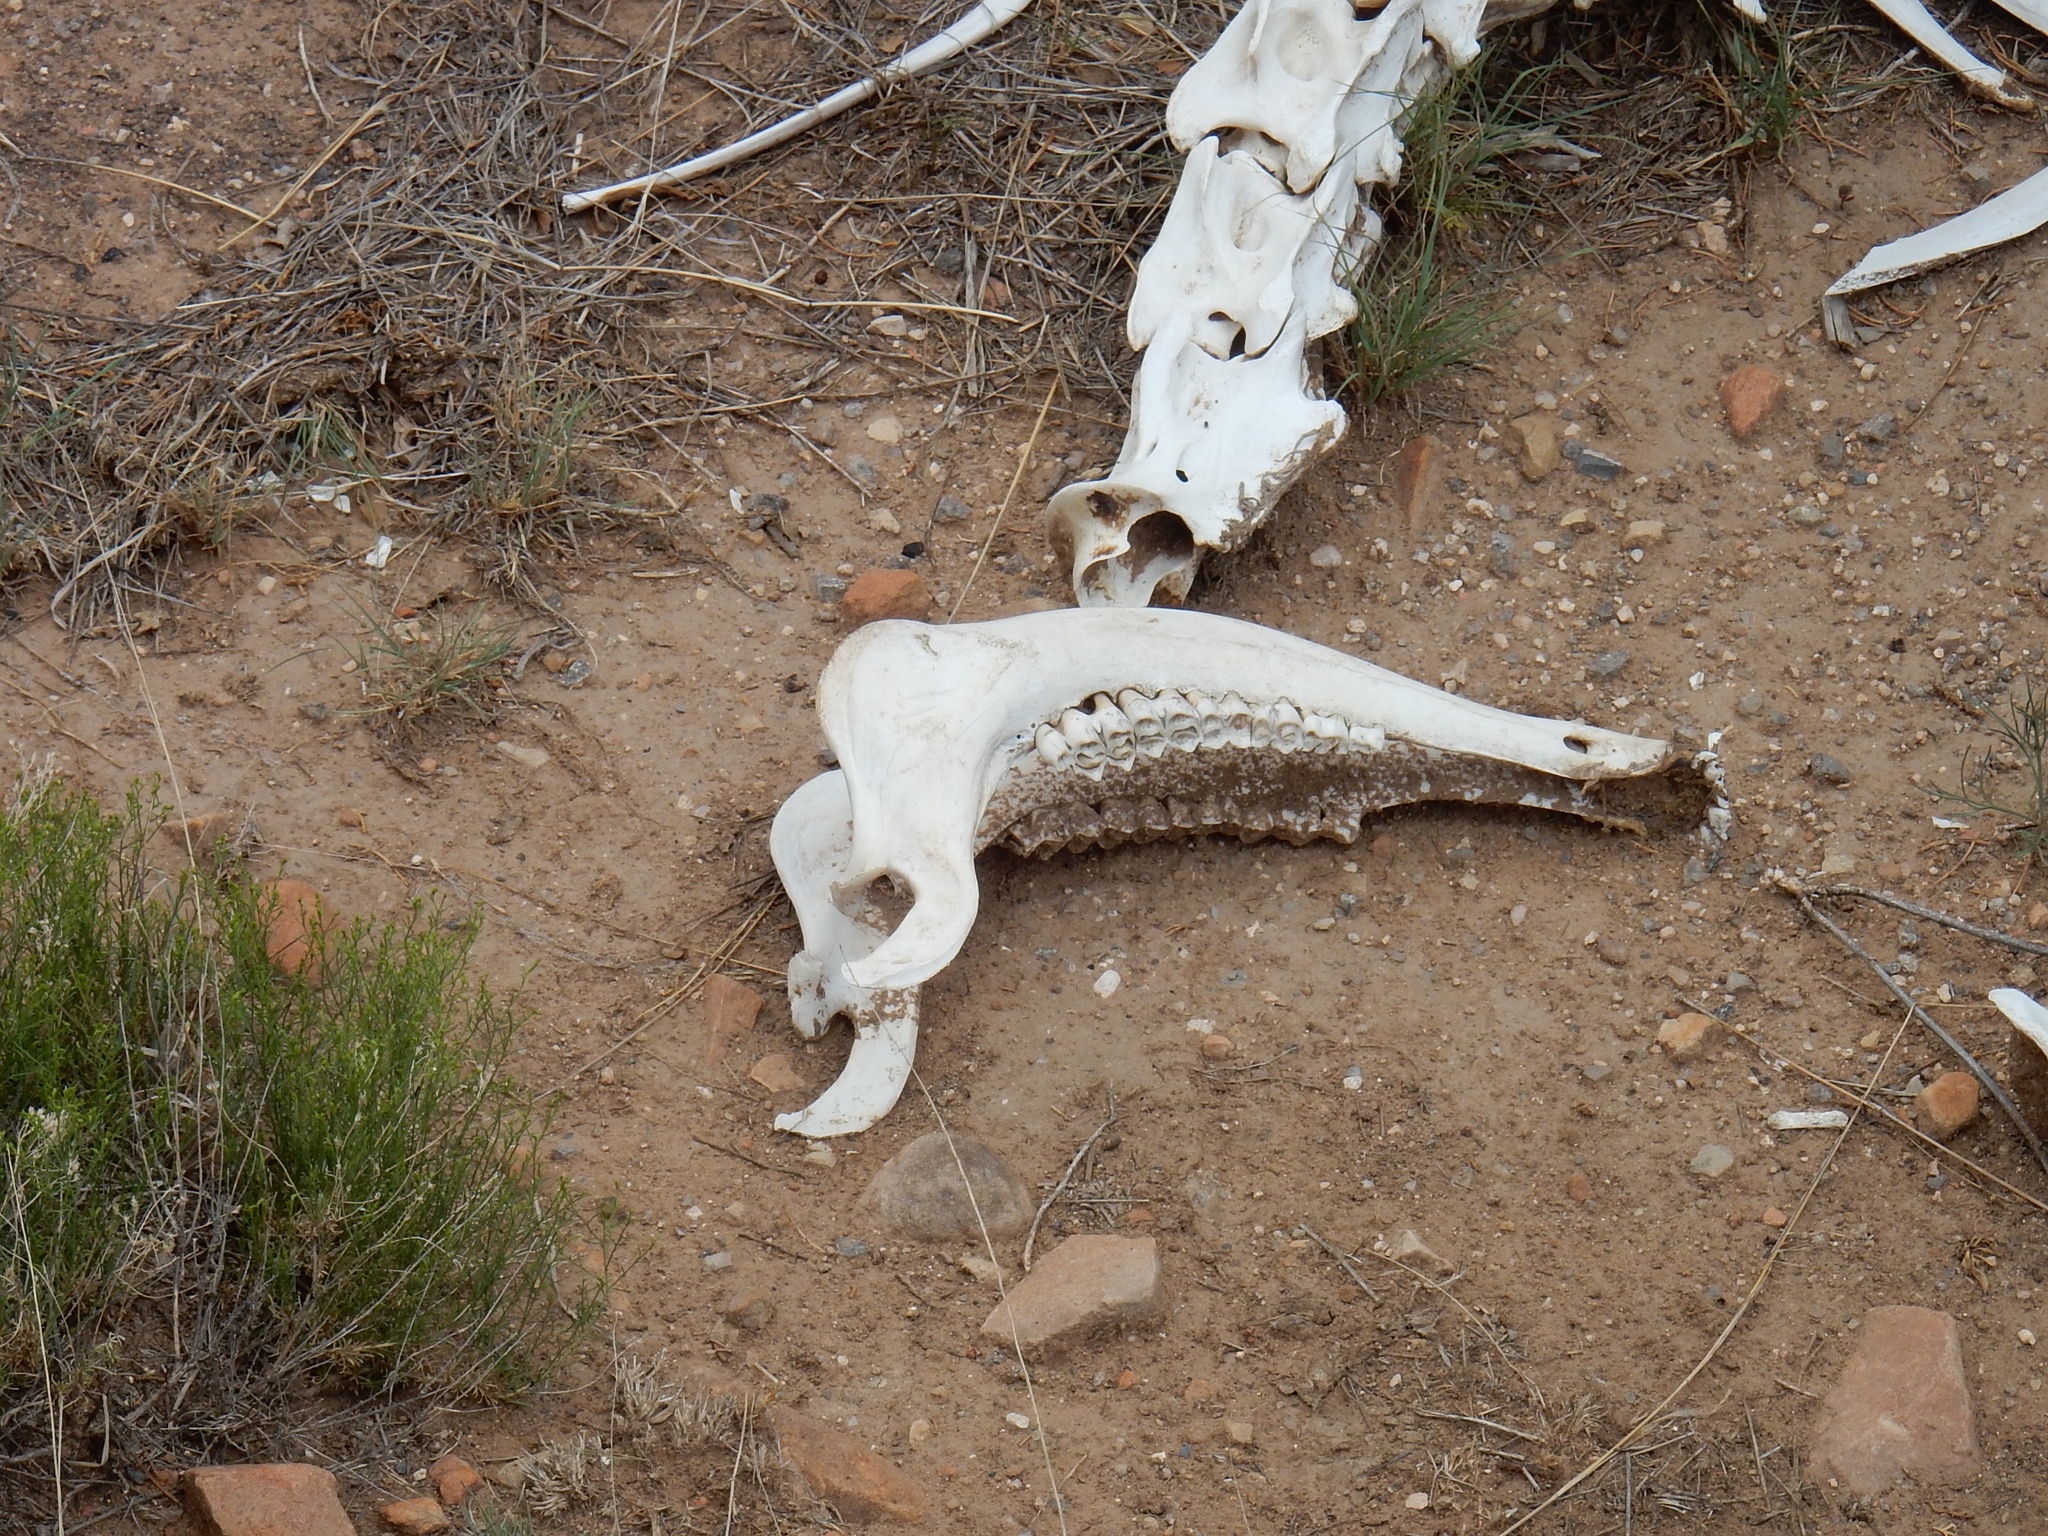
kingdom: Animalia
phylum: Chordata
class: Mammalia
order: Artiodactyla
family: Cervidae
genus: Cervus
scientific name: Cervus elaphus
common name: Red deer
